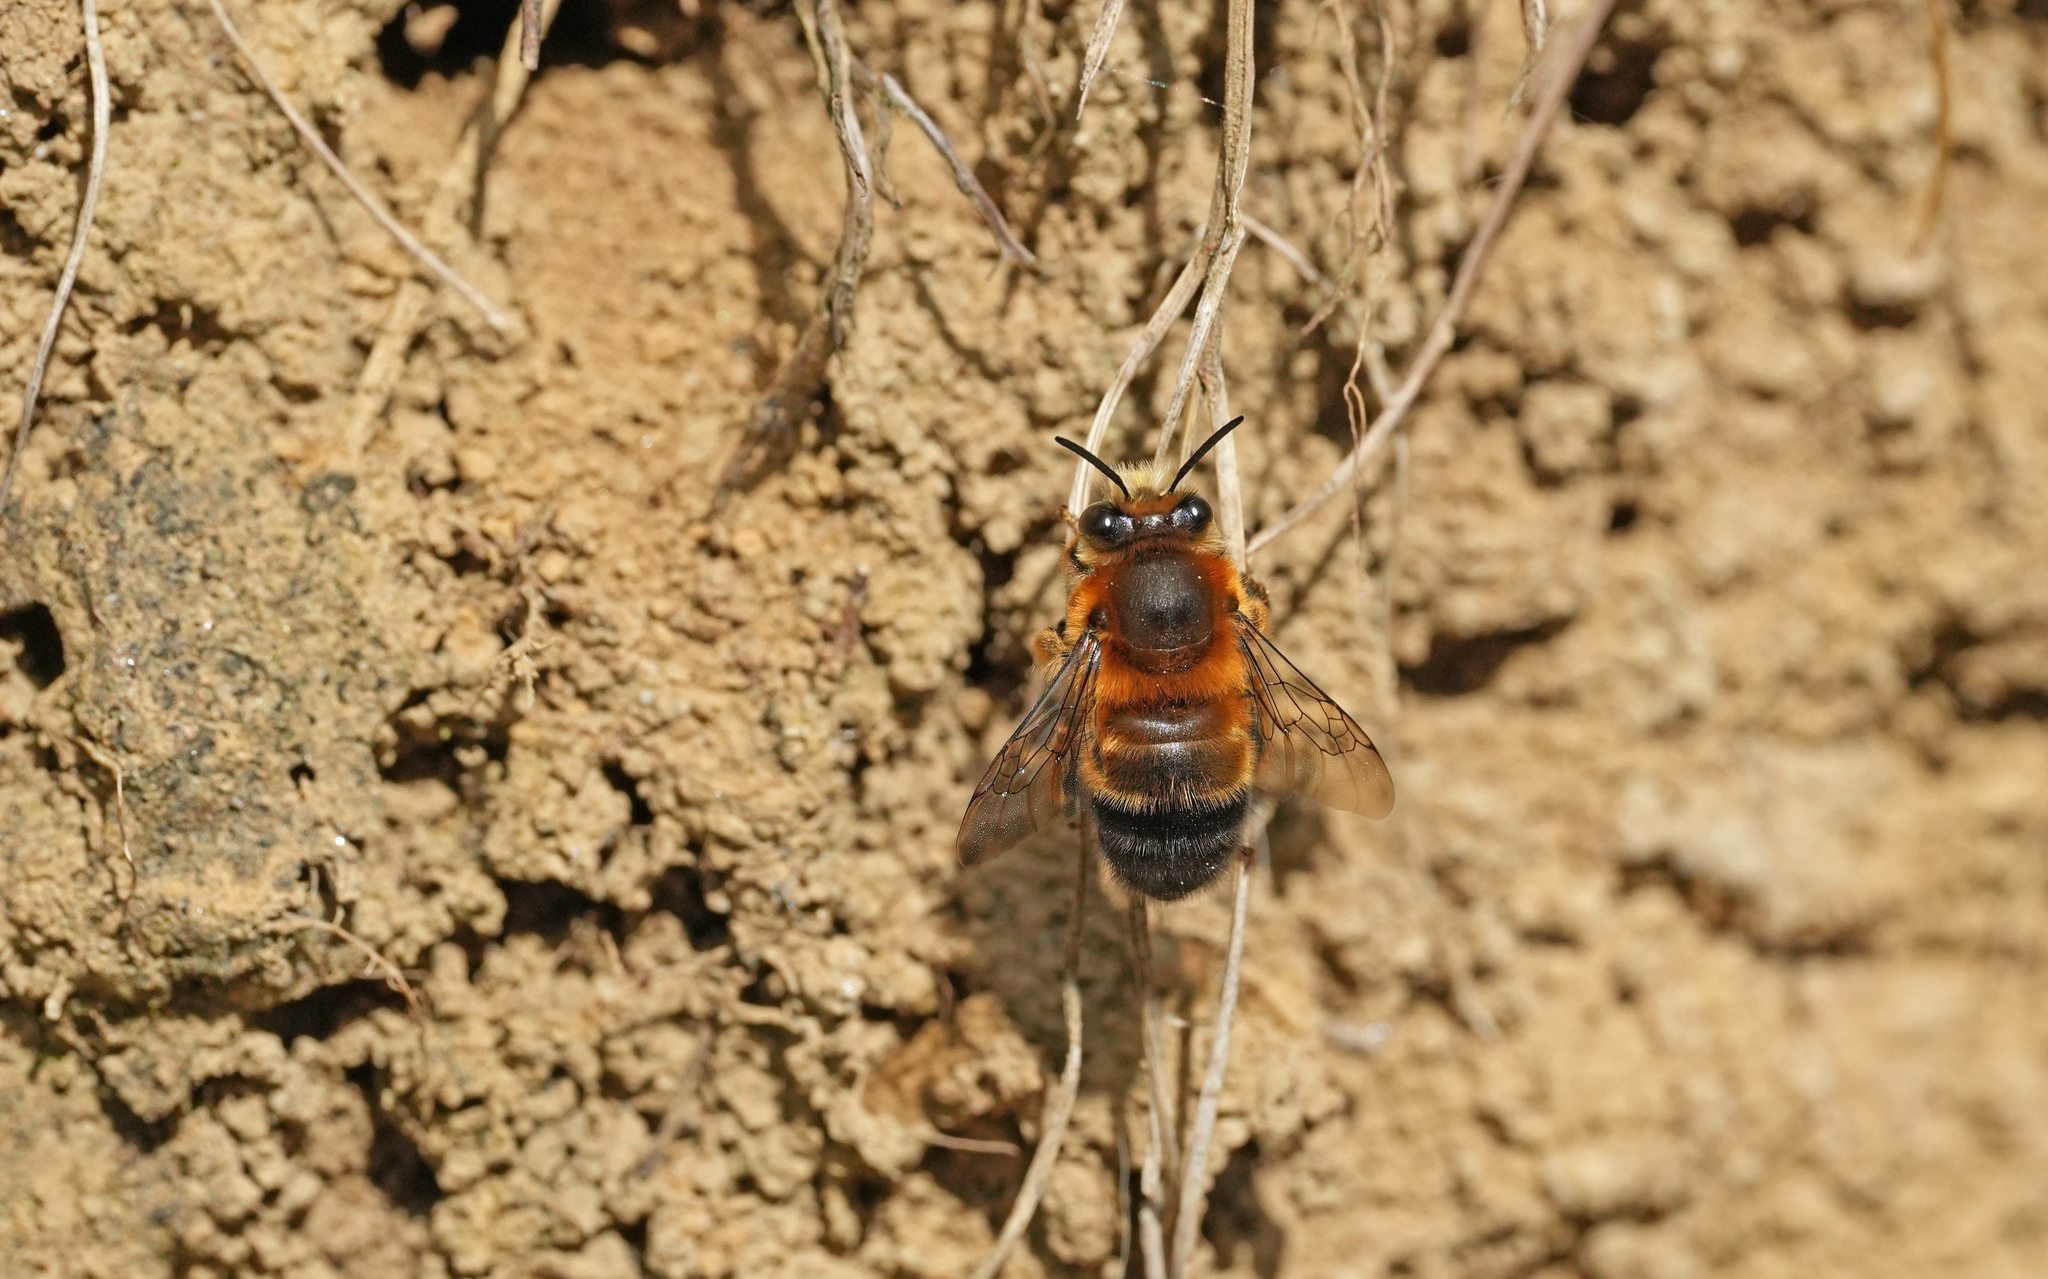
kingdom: Animalia
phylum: Arthropoda
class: Insecta
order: Hymenoptera
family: Apidae
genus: Anthophora
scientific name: Anthophora aestivalis
